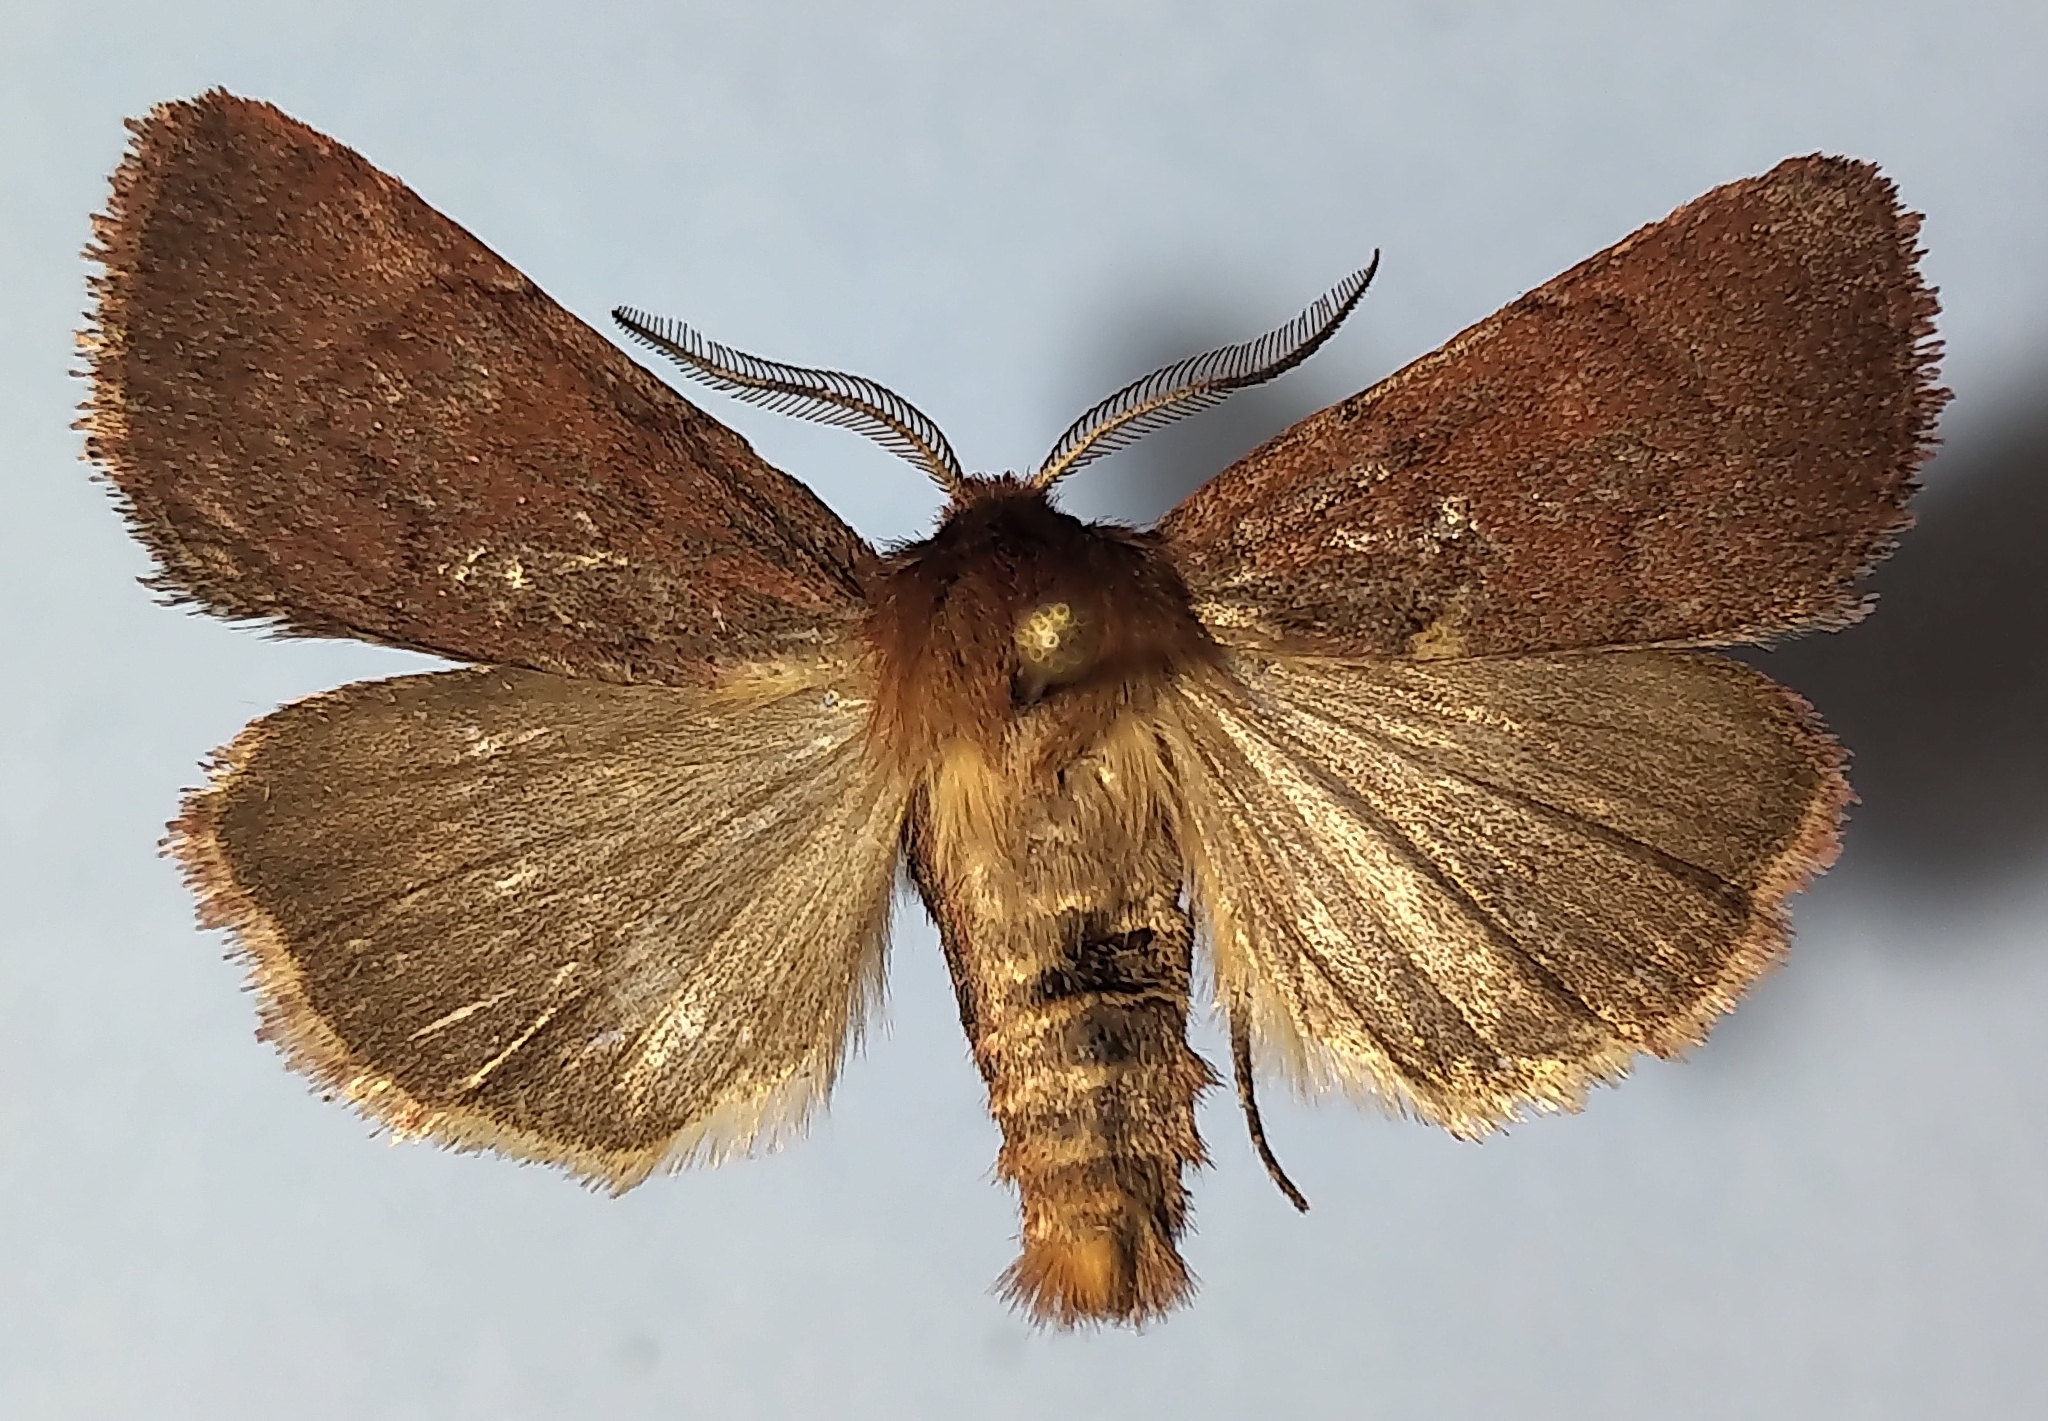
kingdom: Animalia
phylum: Arthropoda
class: Insecta
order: Lepidoptera
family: Noctuidae
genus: Hemipachnobia
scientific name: Hemipachnobia monochromatea
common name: Sundew cutworm moth
